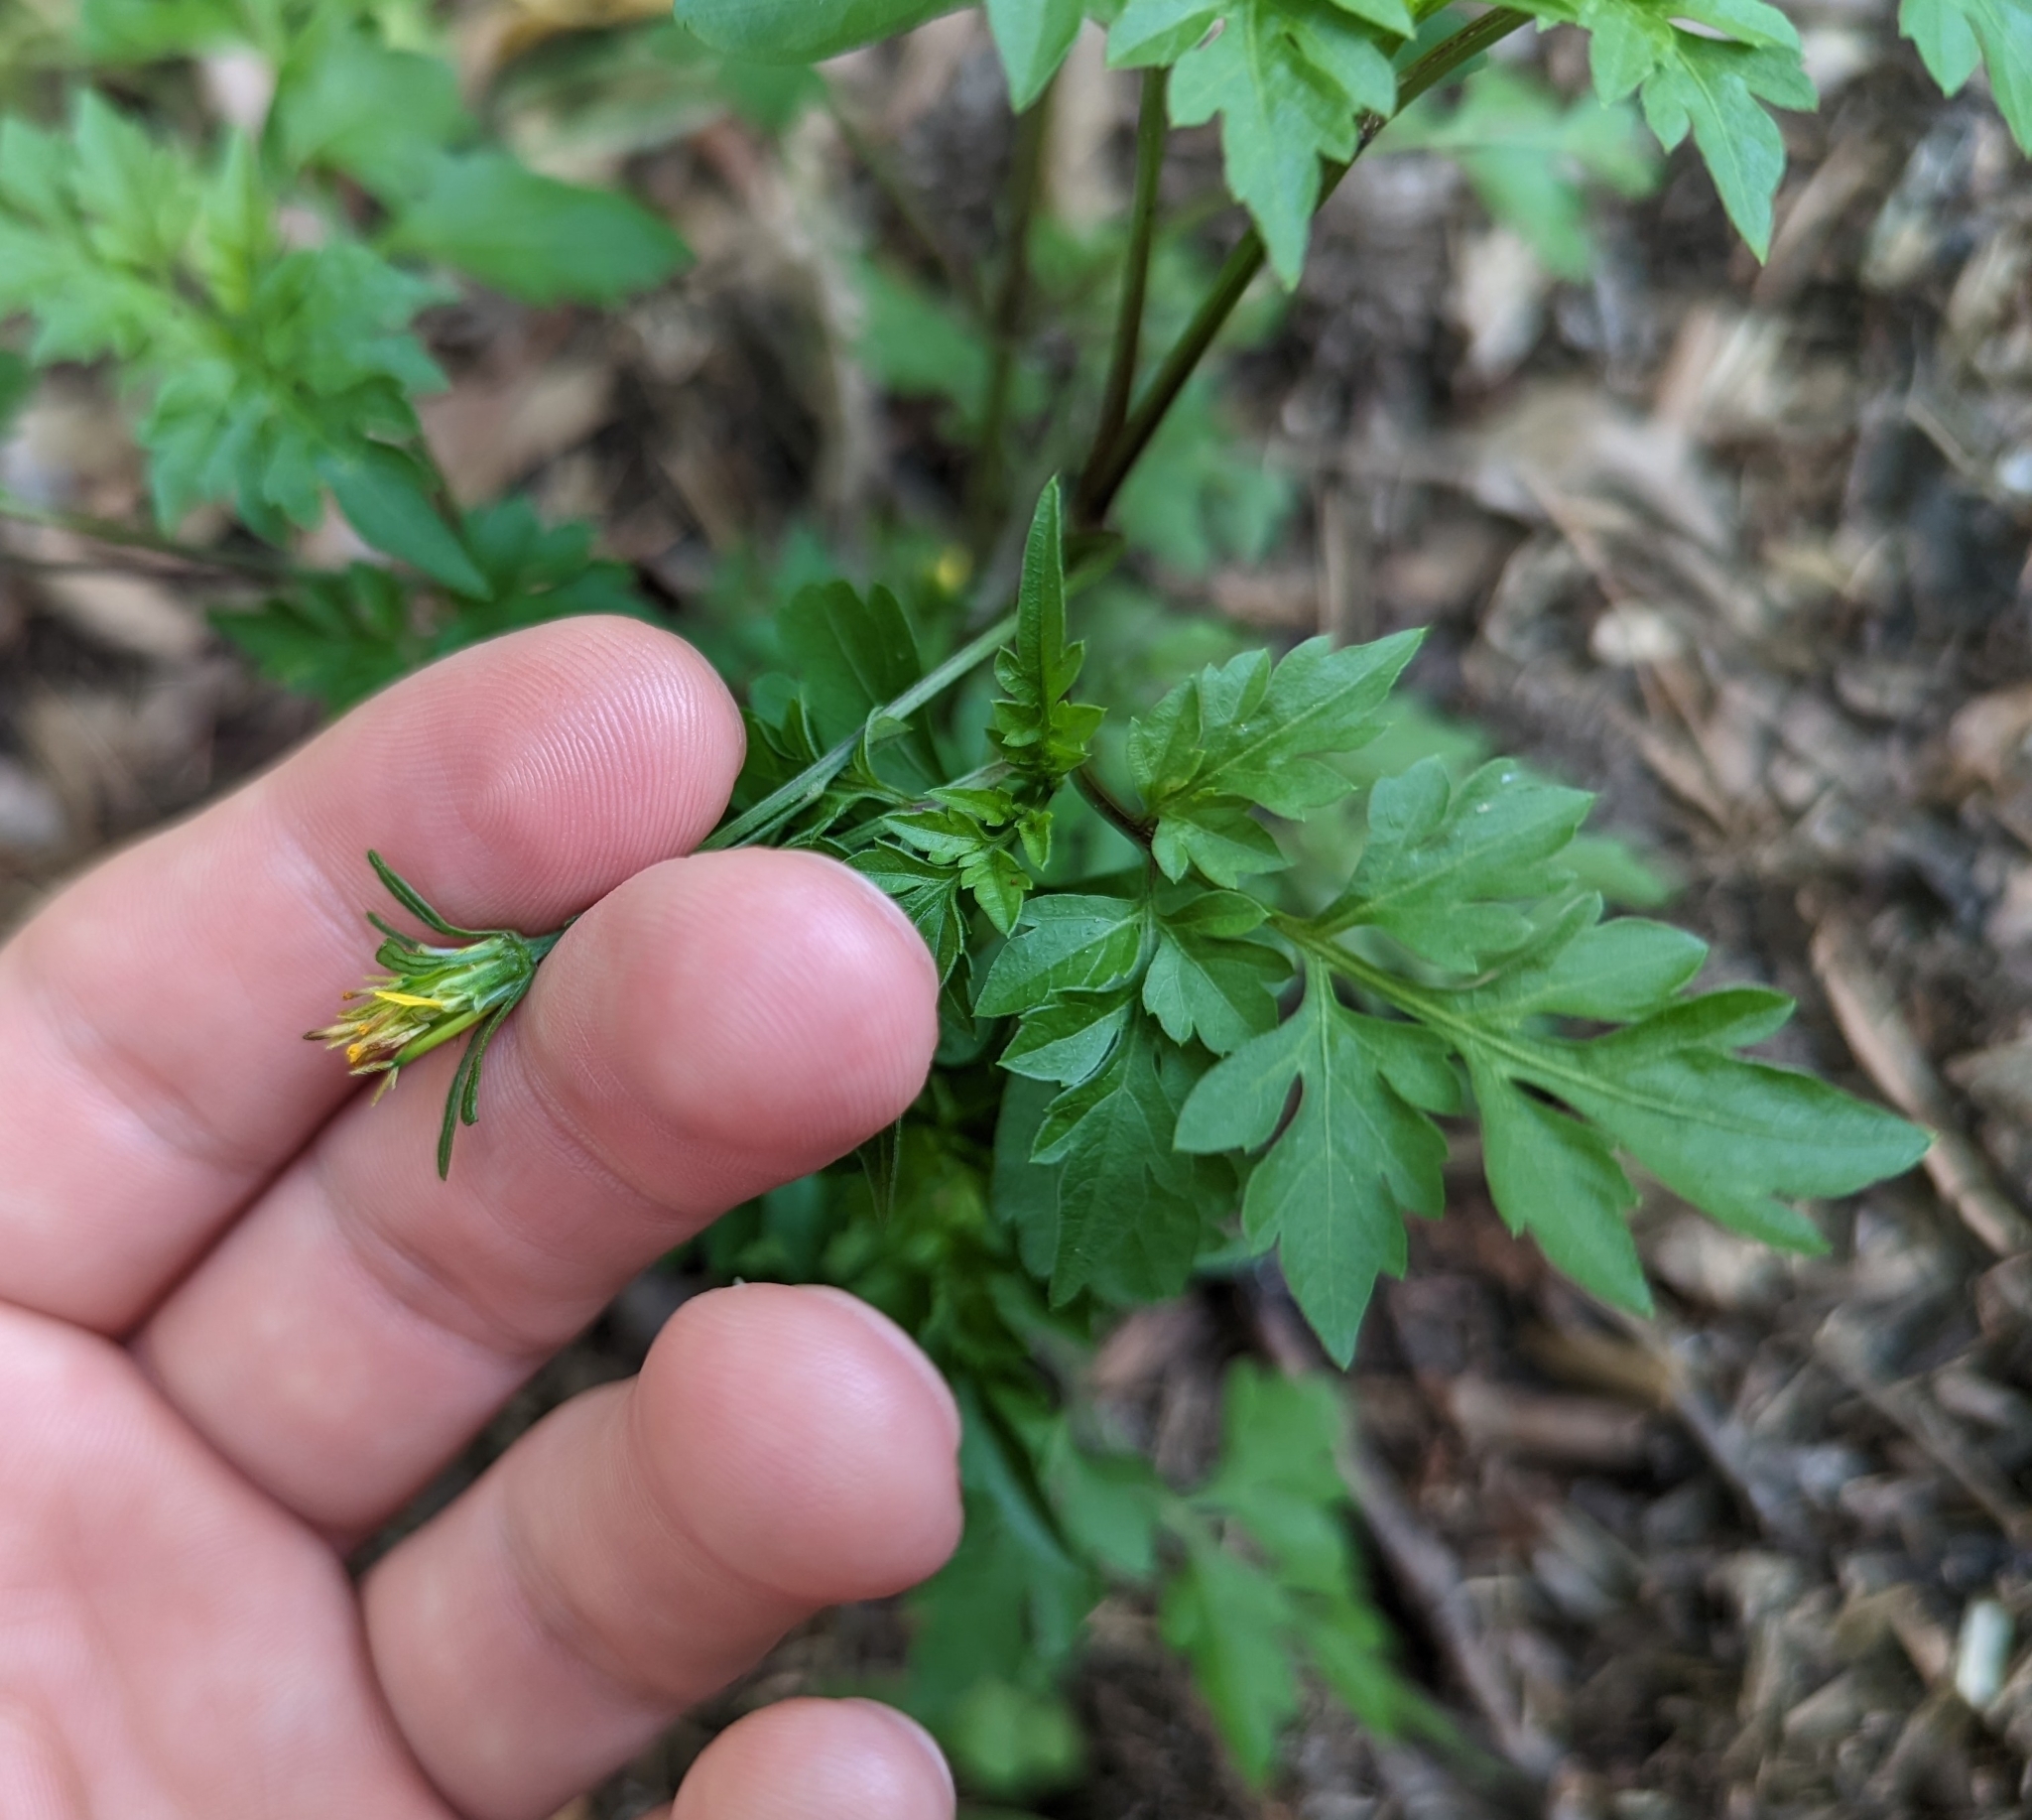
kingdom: Plantae
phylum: Tracheophyta
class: Magnoliopsida
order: Asterales
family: Asteraceae
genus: Bidens
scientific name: Bidens bipinnata
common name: Spanish-needles
